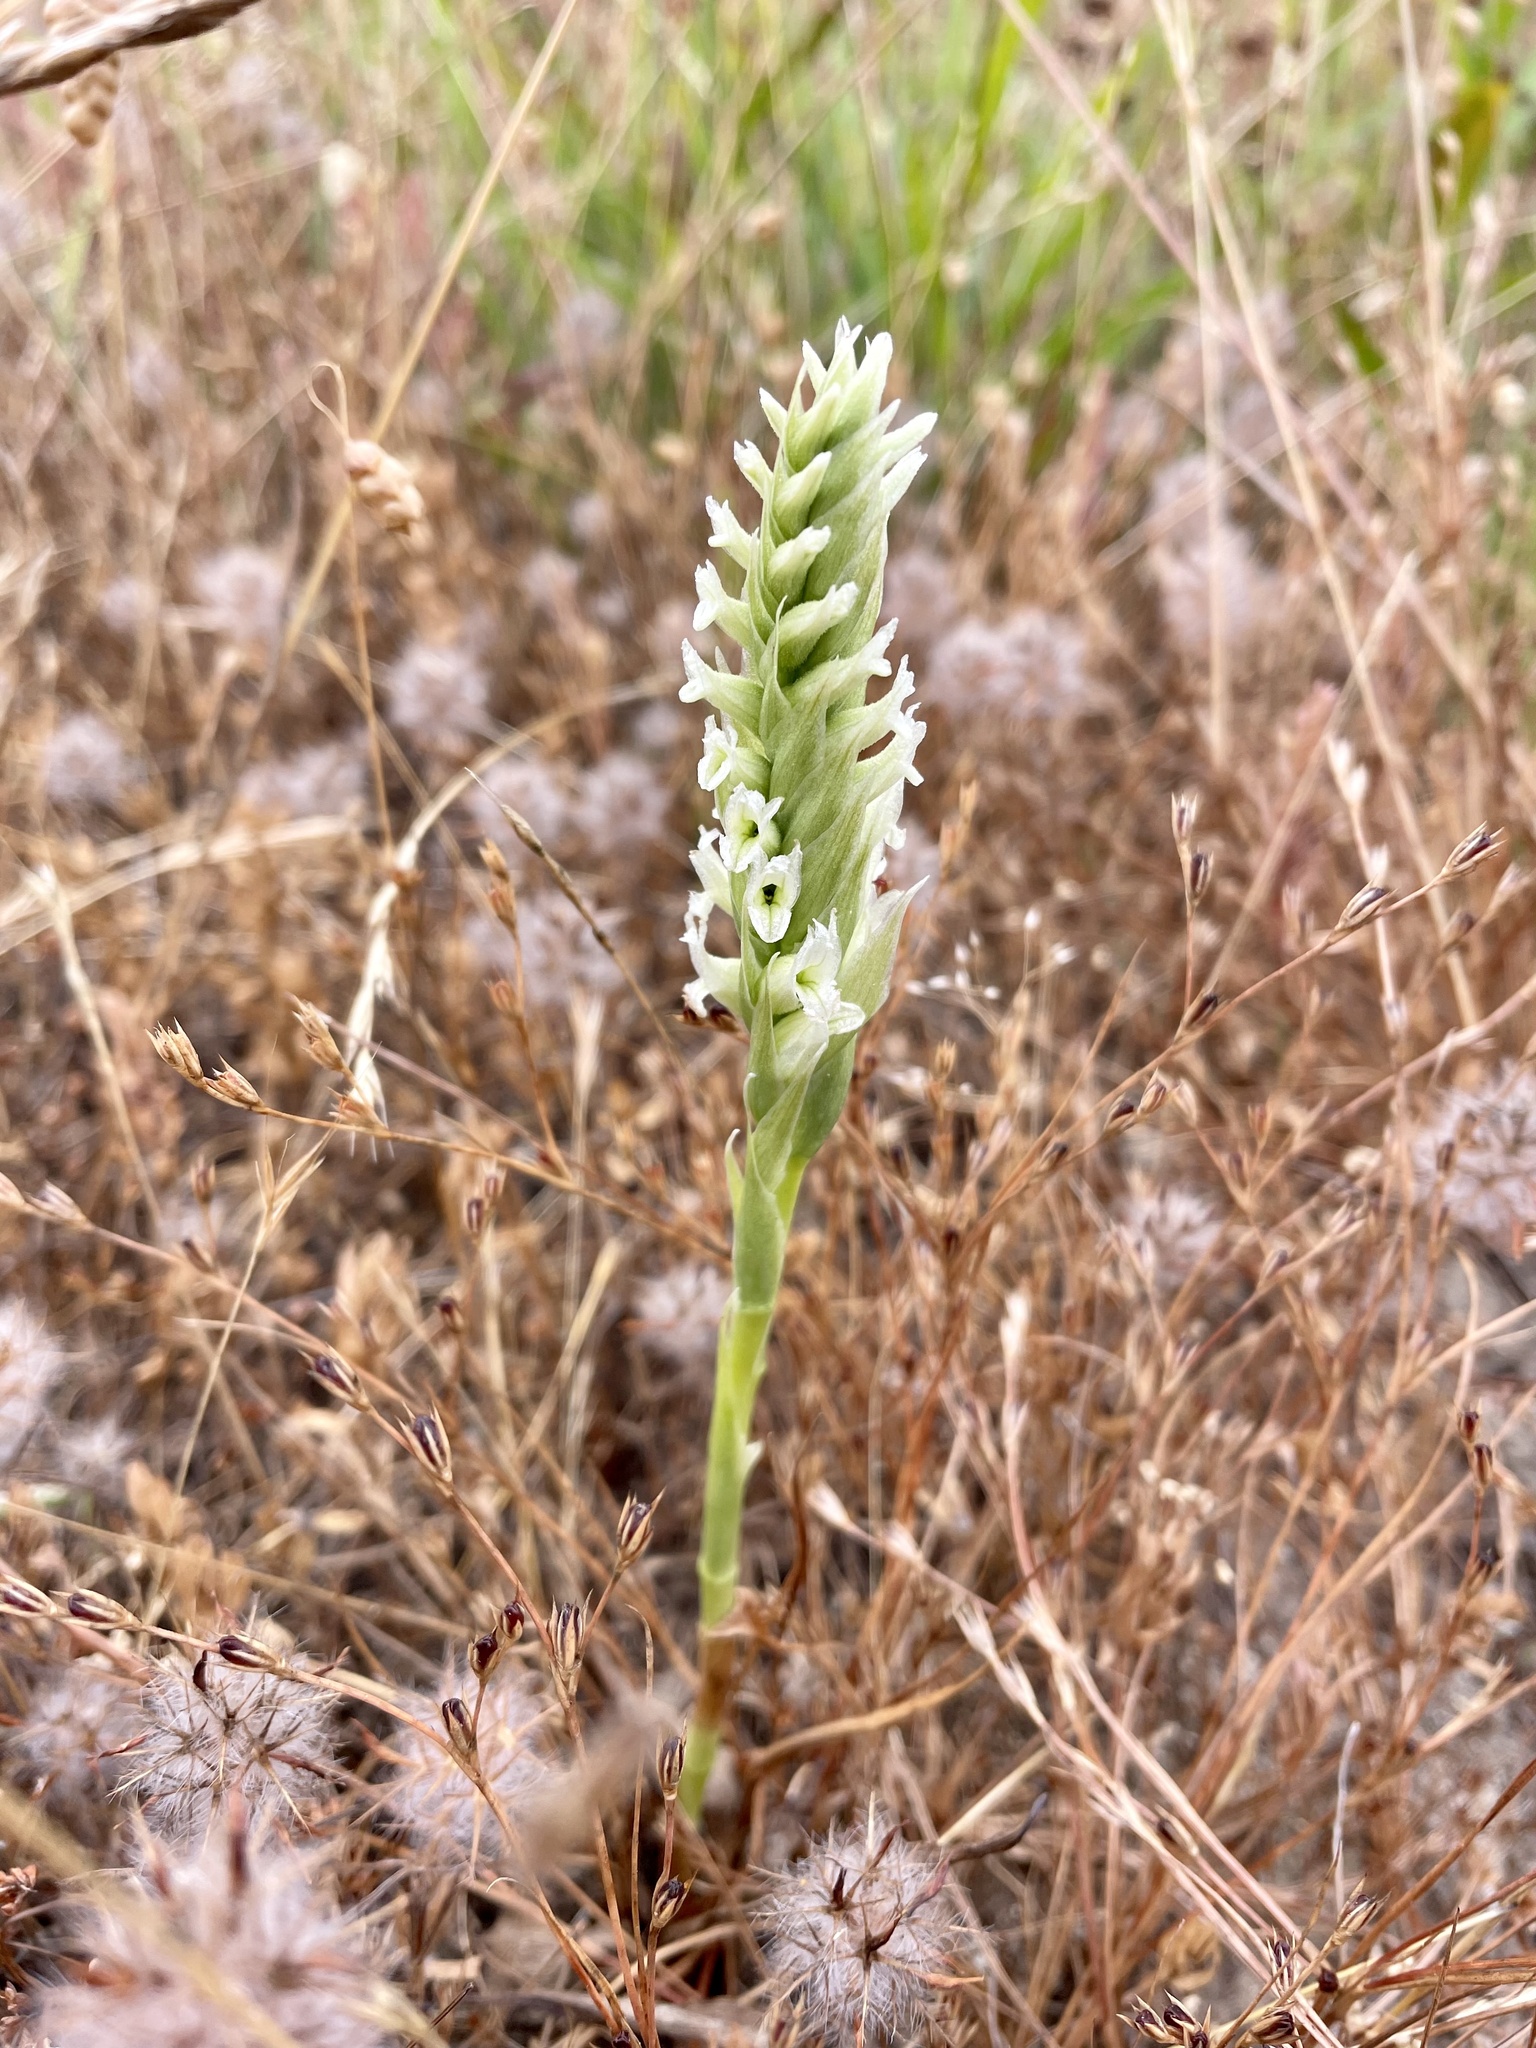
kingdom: Plantae
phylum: Tracheophyta
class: Liliopsida
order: Asparagales
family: Orchidaceae
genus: Spiranthes
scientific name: Spiranthes romanzoffiana
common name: Irish lady's-tresses
